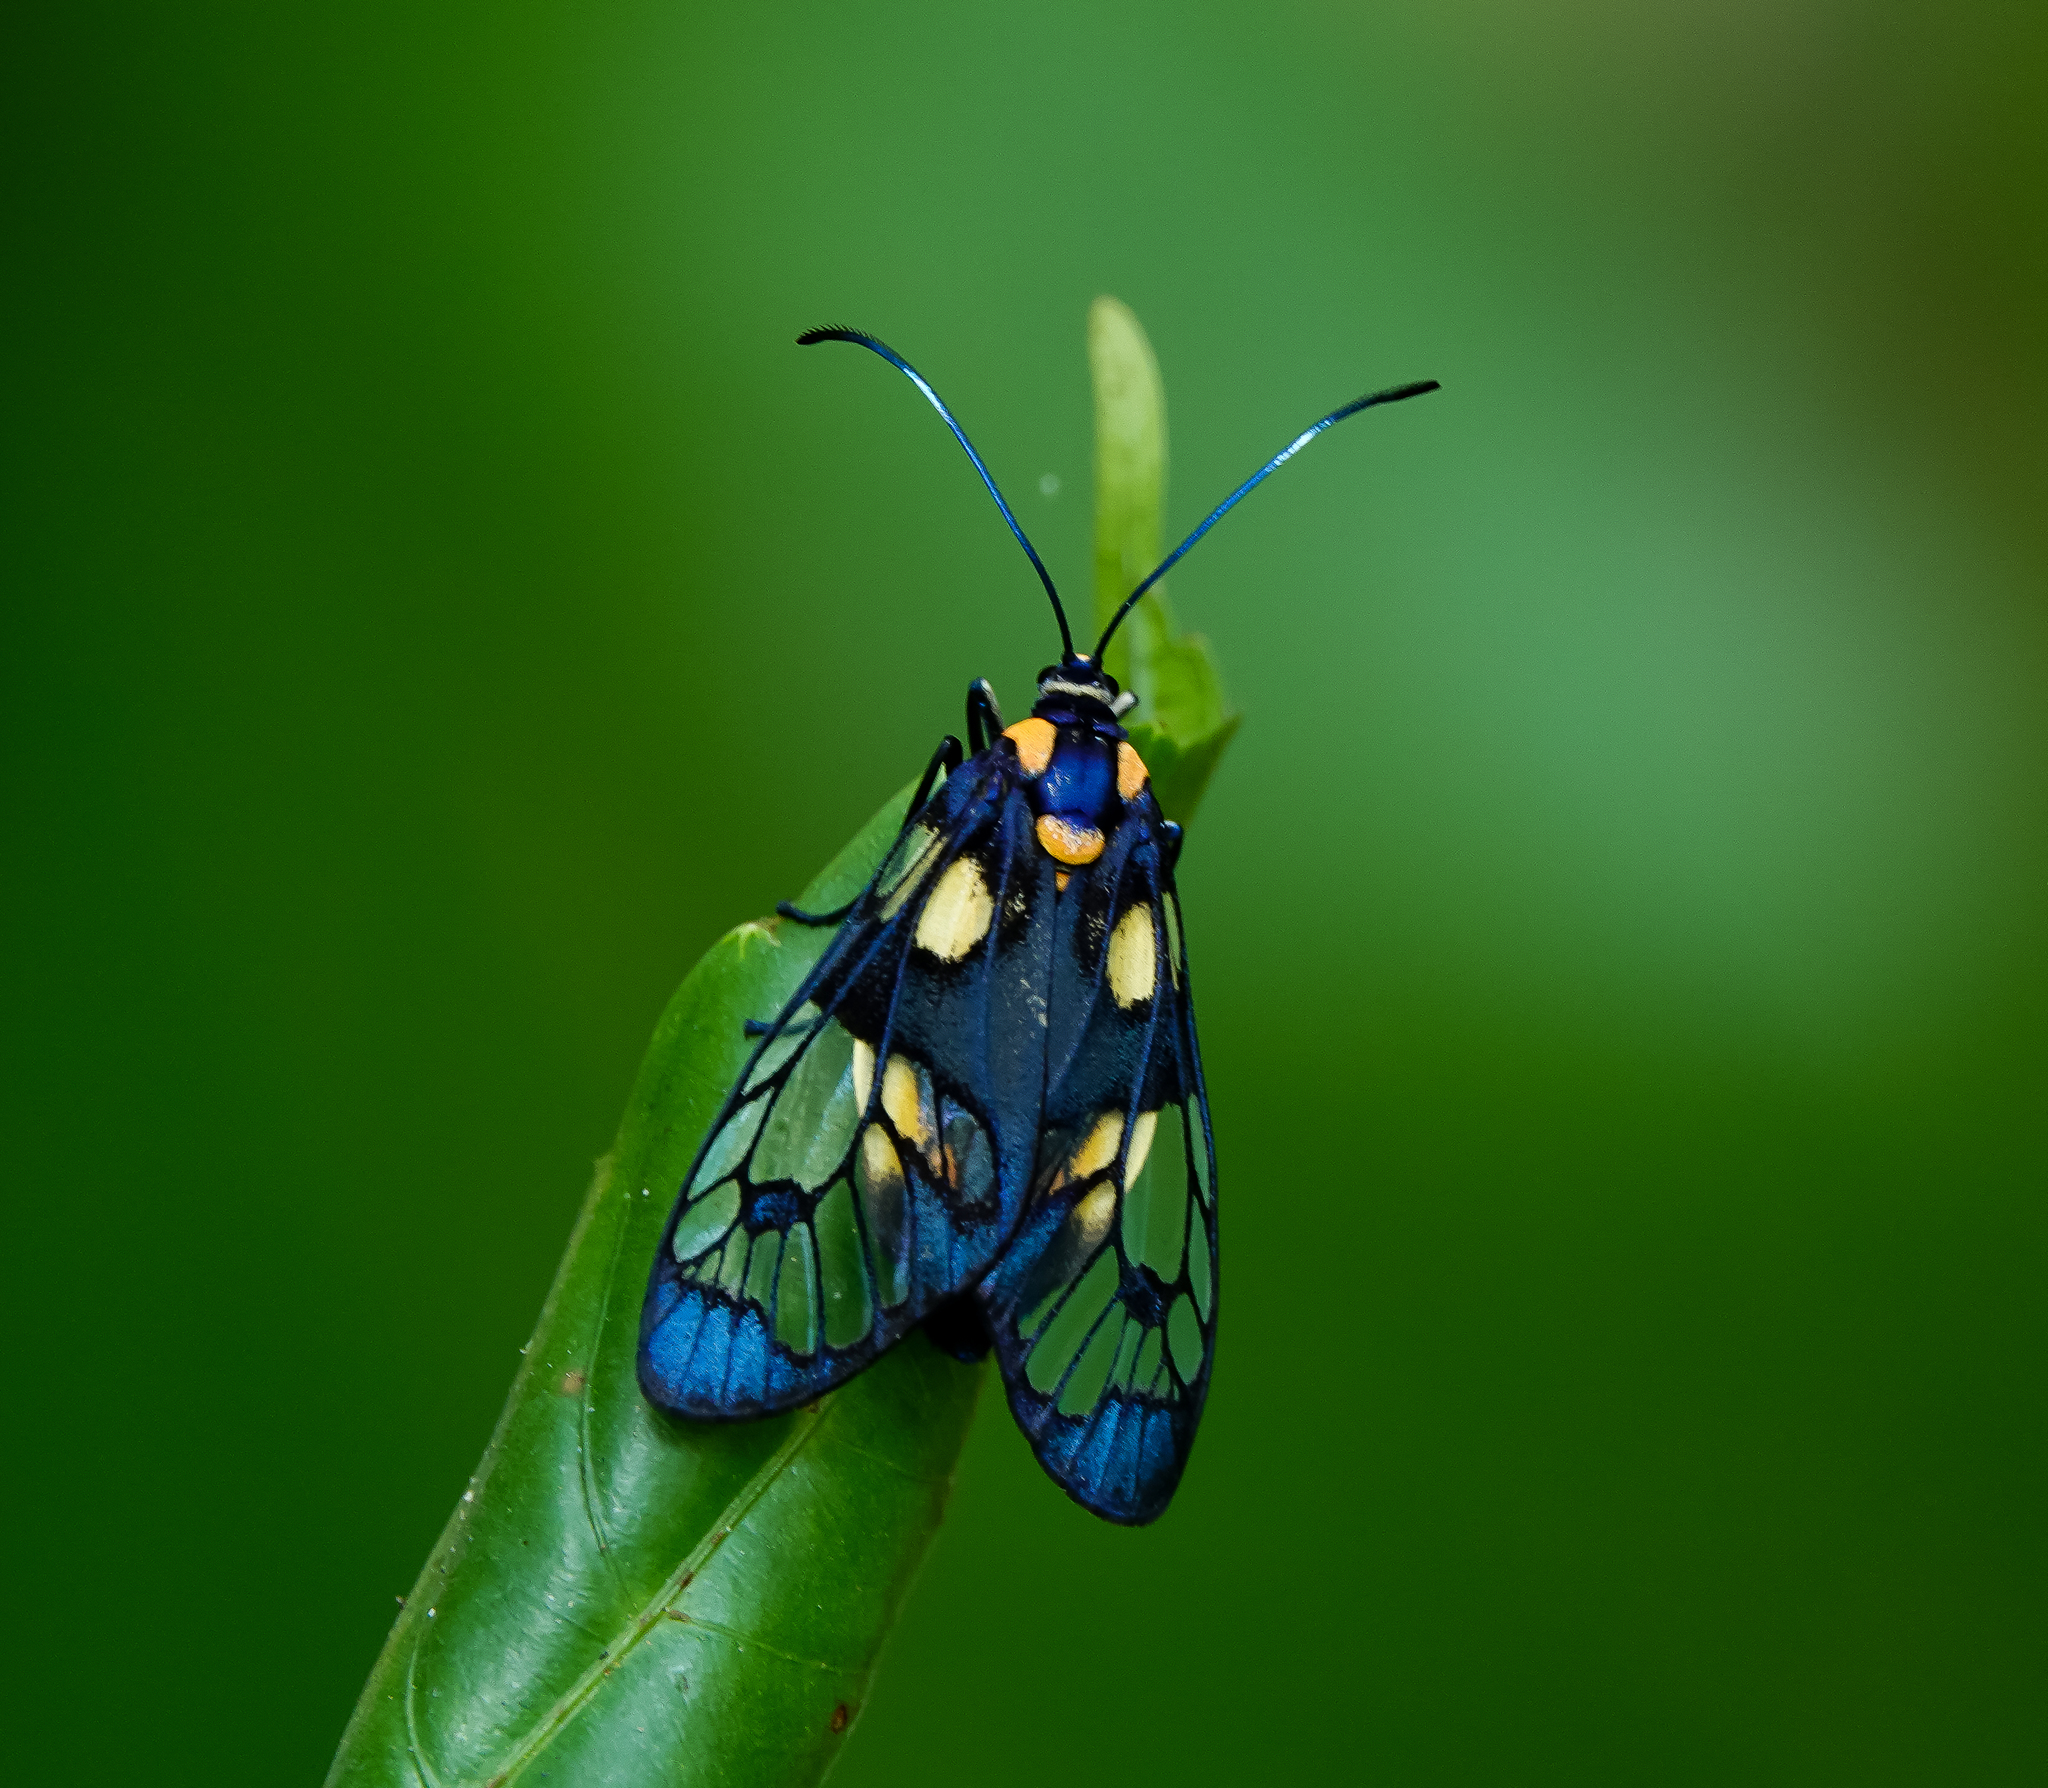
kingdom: Animalia
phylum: Arthropoda
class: Insecta
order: Lepidoptera
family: Zygaenidae
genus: Trypanophora
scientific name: Trypanophora semihyalina
